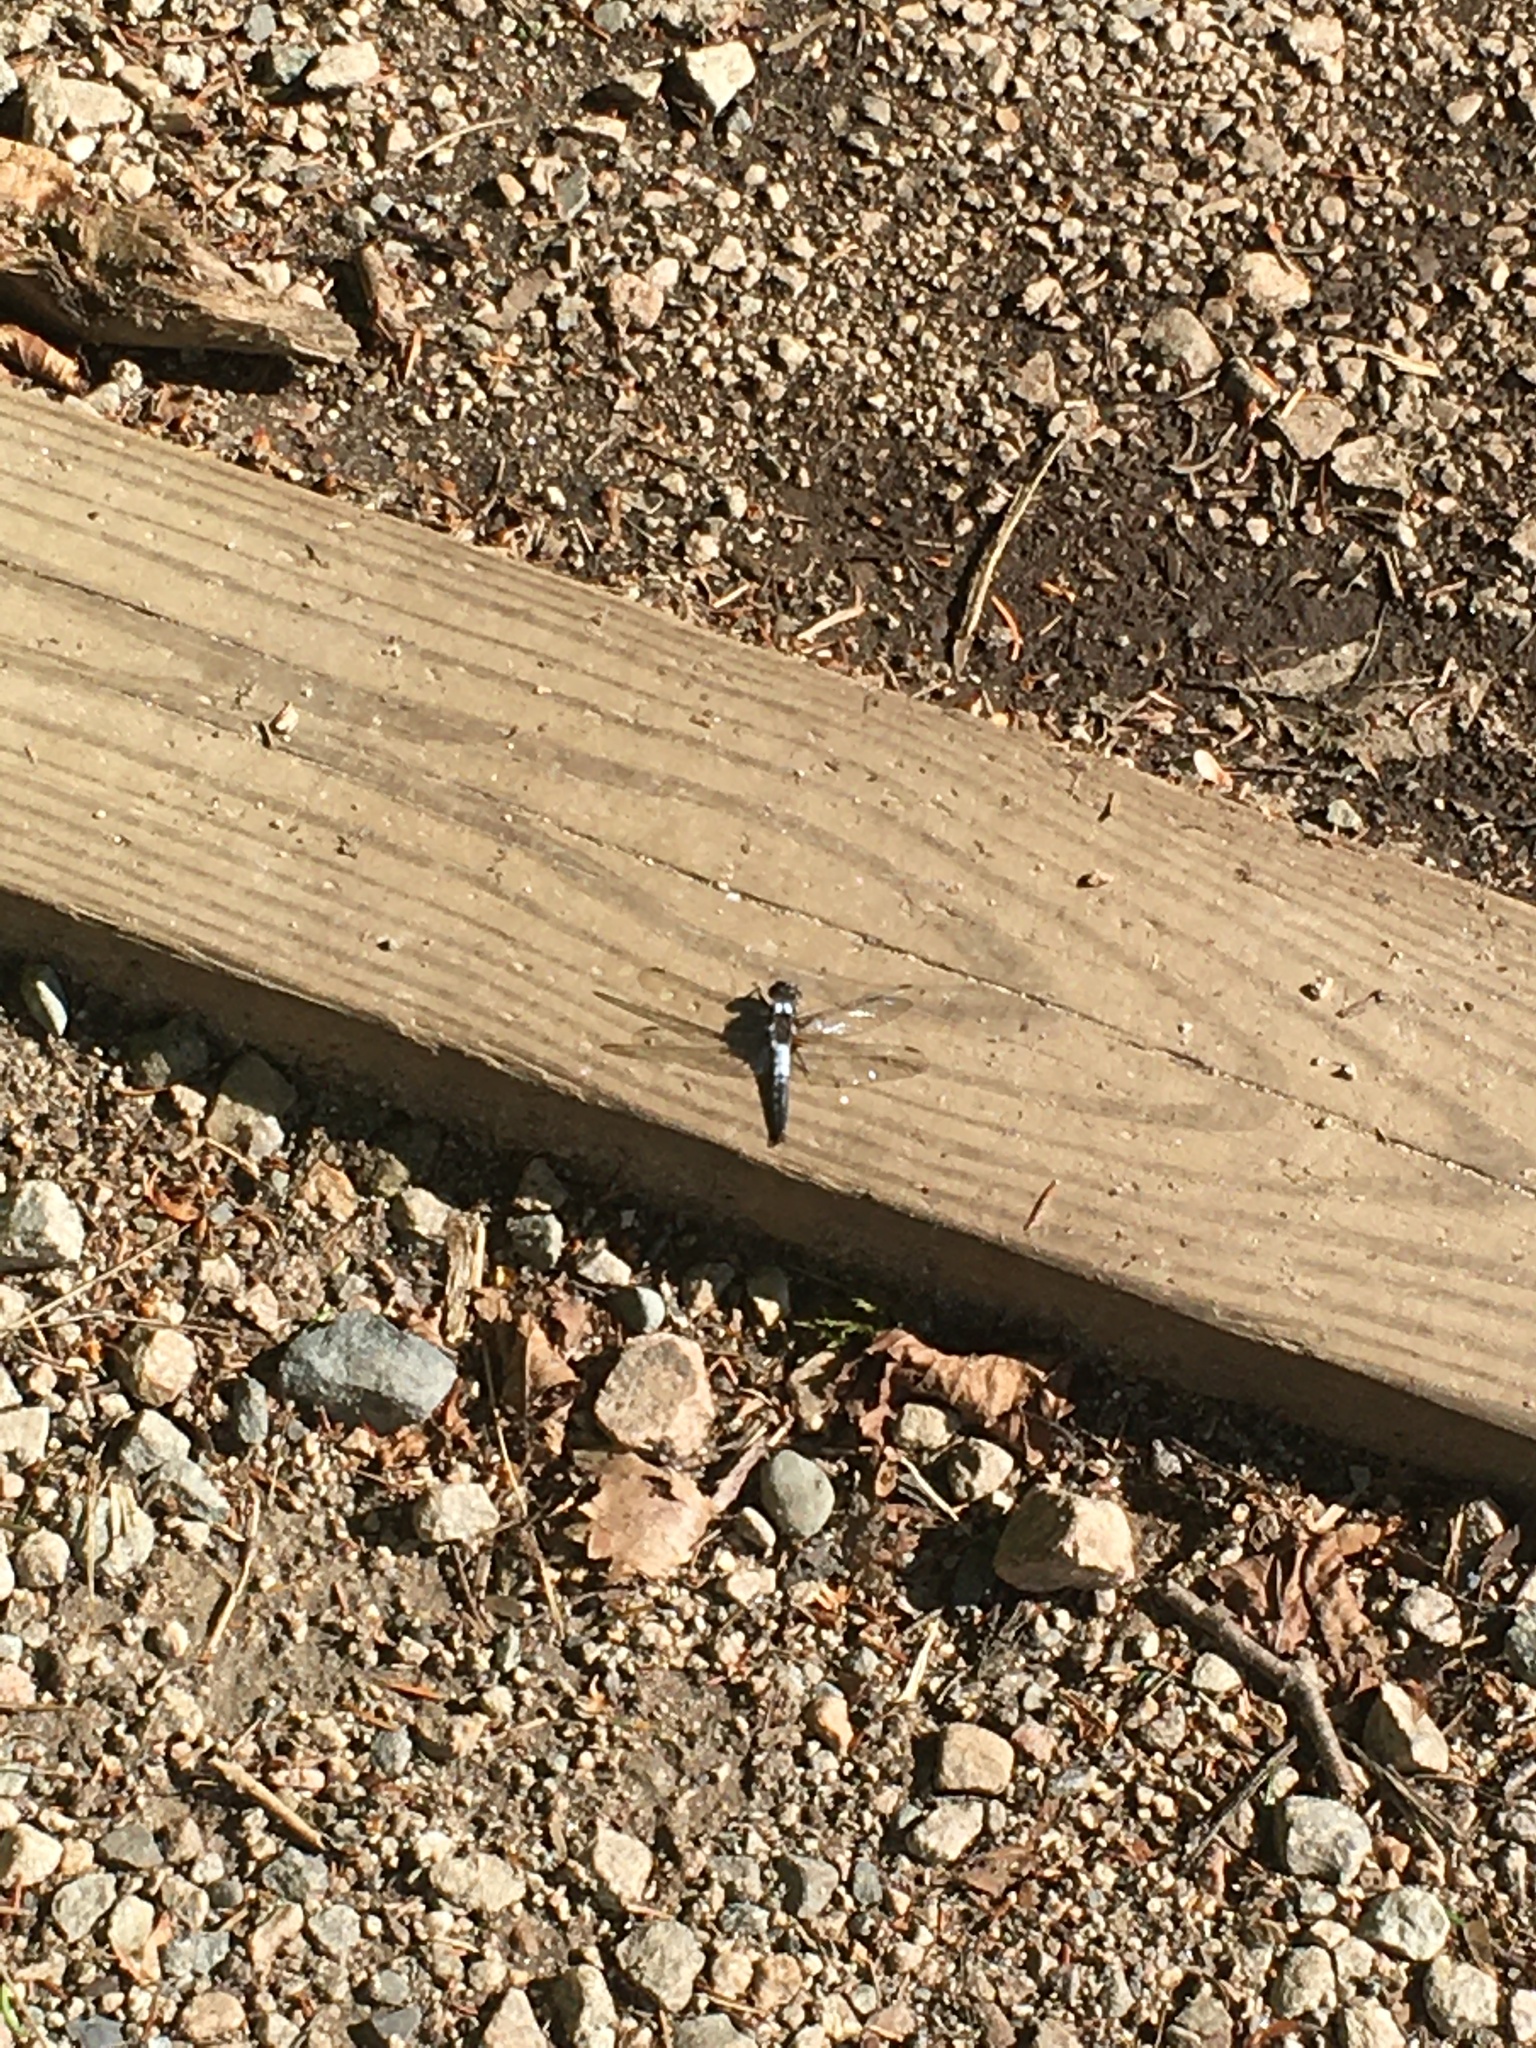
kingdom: Animalia
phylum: Arthropoda
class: Insecta
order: Odonata
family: Libellulidae
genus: Ladona
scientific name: Ladona julia
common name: Chalk-fronted corporal
